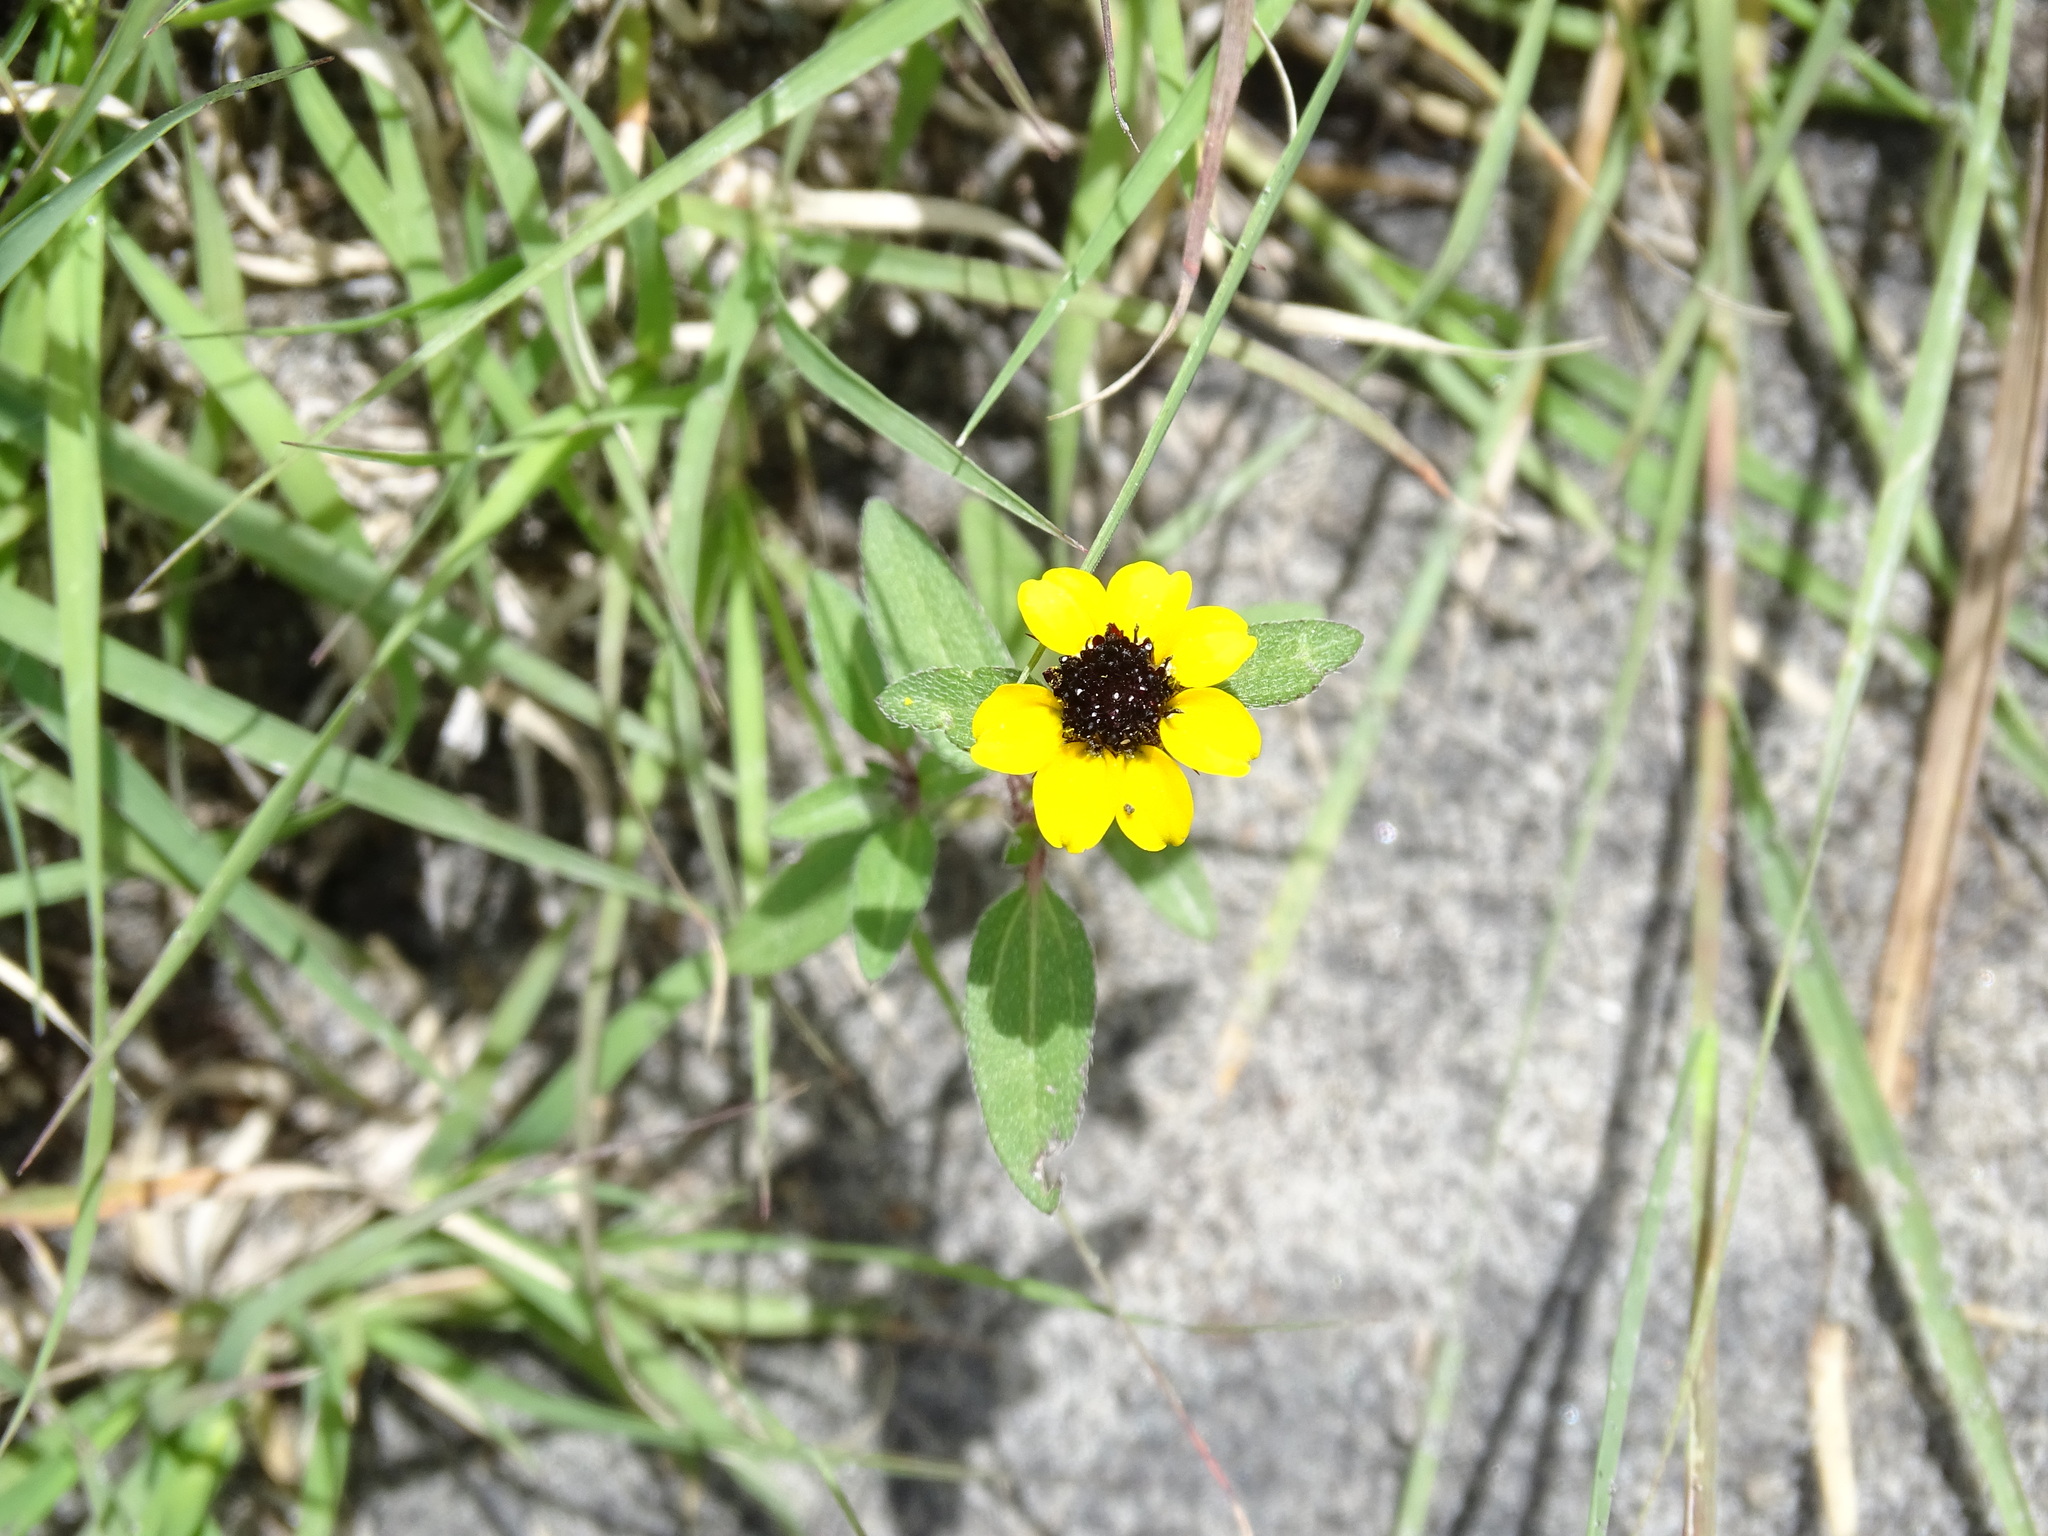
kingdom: Plantae
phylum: Tracheophyta
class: Magnoliopsida
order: Asterales
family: Asteraceae
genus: Sanvitalia
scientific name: Sanvitalia procumbens
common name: Mexican creeping zinnia
